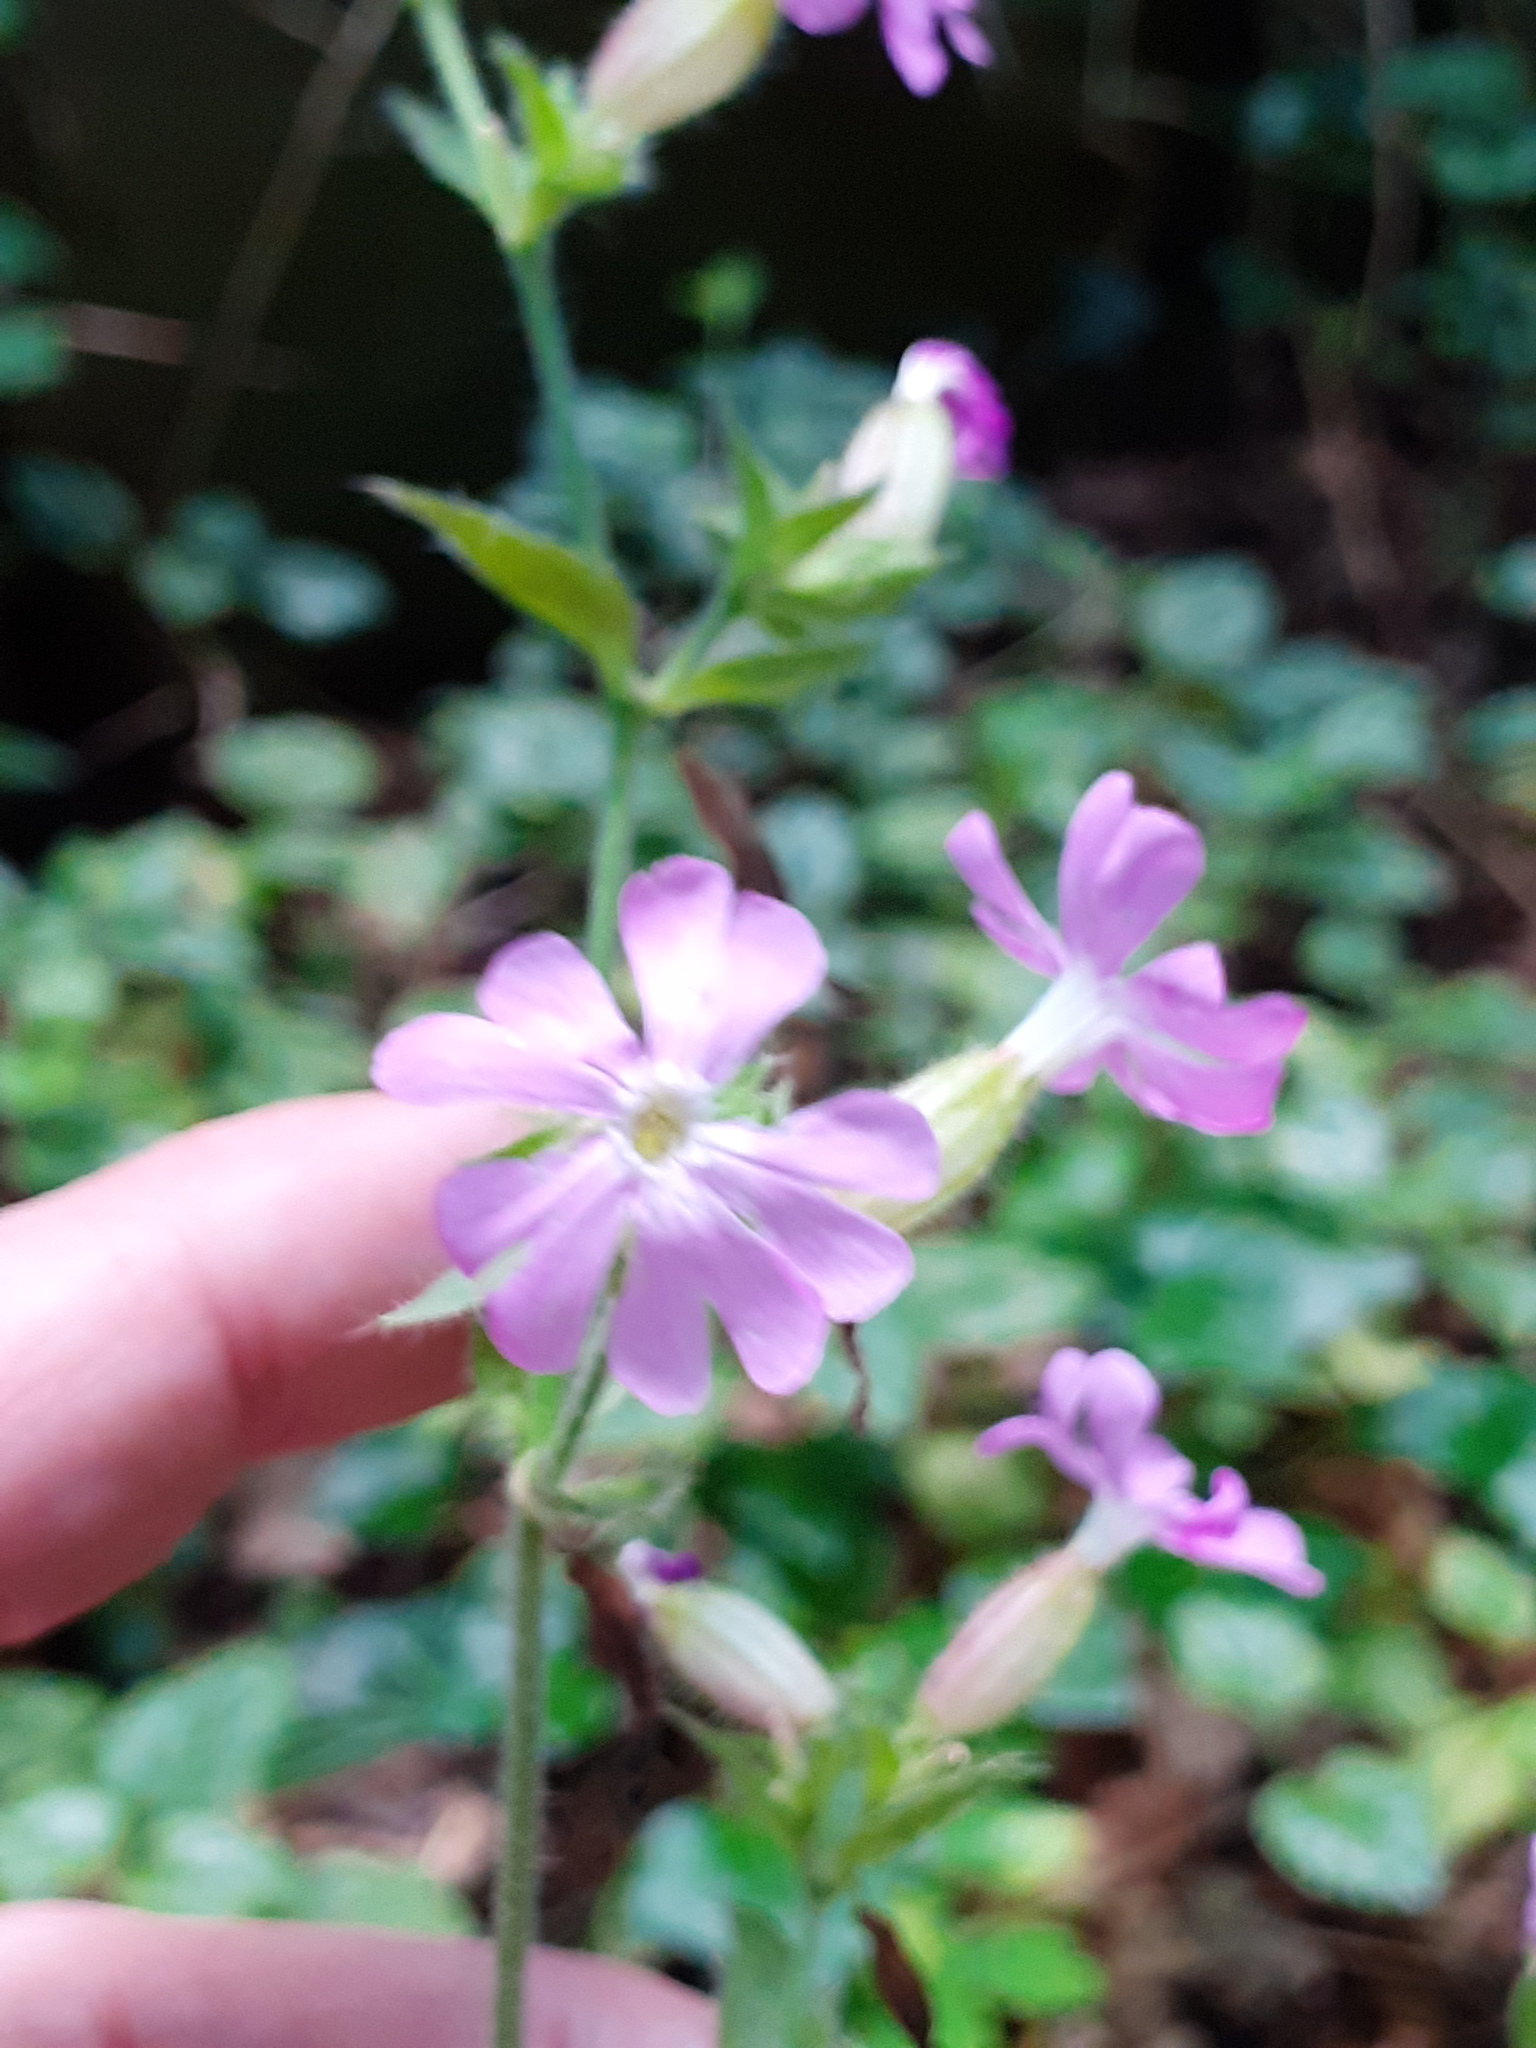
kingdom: Plantae
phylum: Tracheophyta
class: Magnoliopsida
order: Caryophyllales
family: Caryophyllaceae
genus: Silene
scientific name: Silene dioica
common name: Red campion
